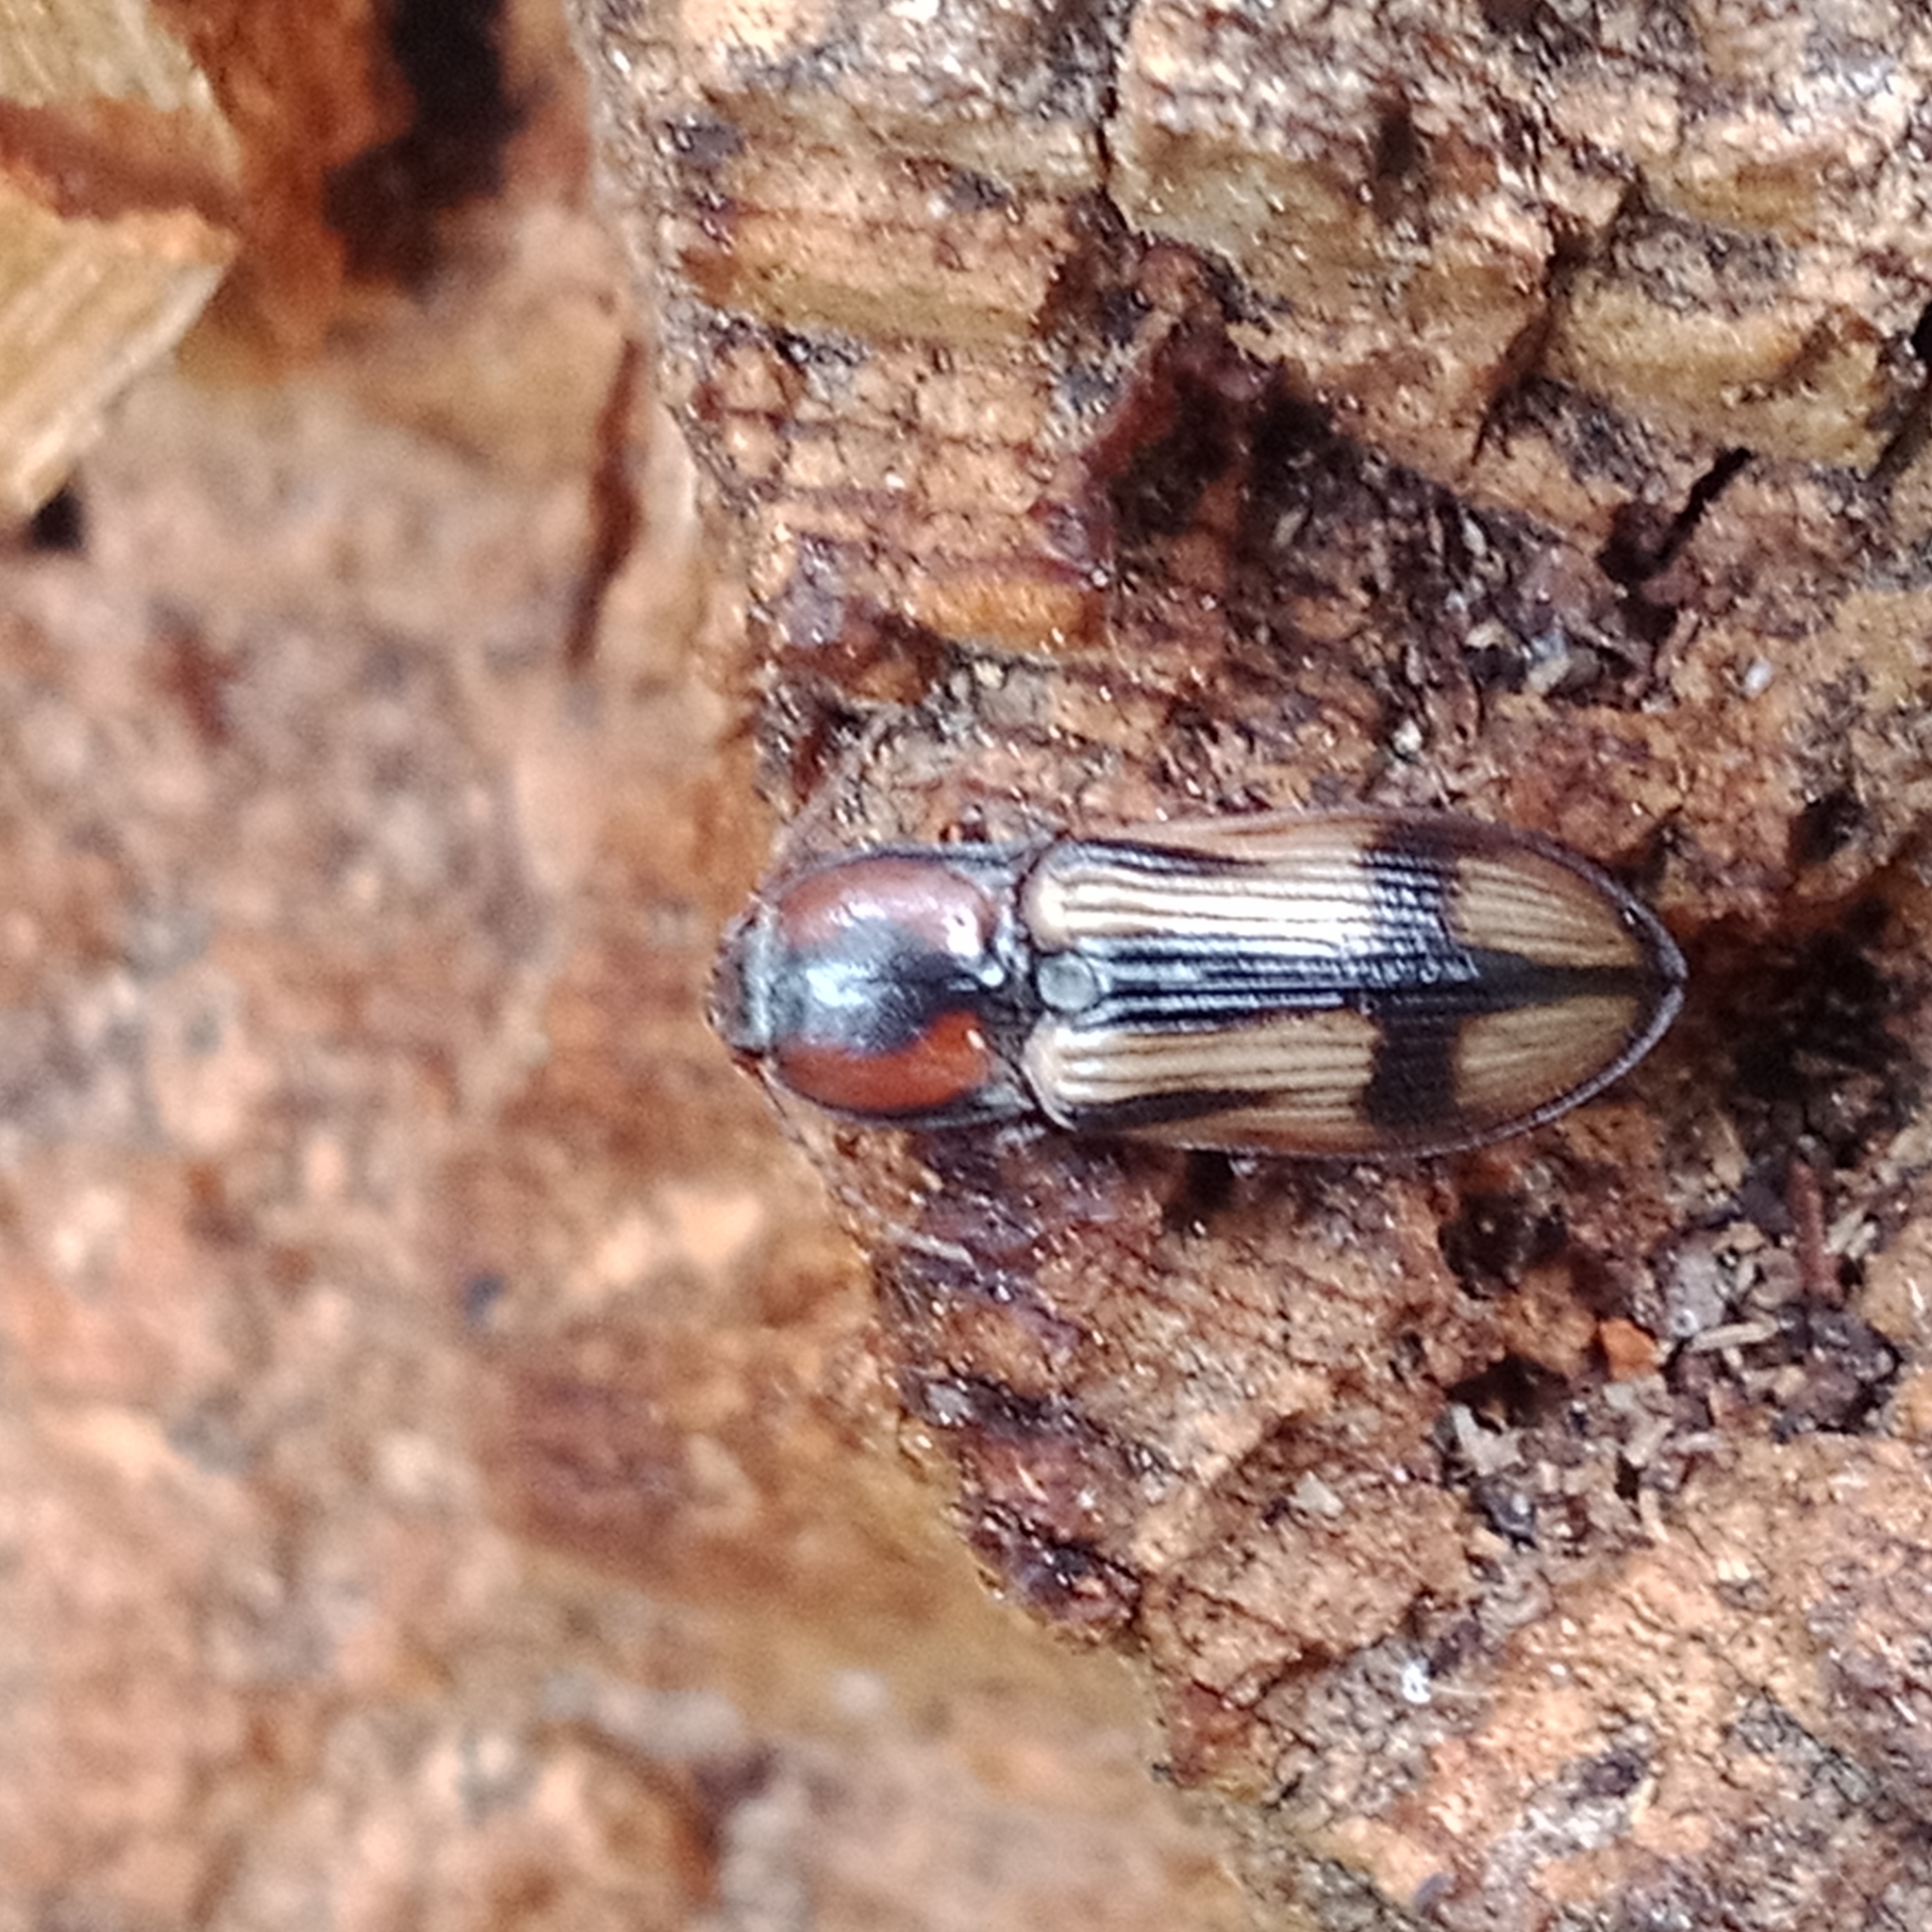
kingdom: Animalia
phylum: Arthropoda
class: Insecta
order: Coleoptera
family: Elateridae
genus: Selatosomus
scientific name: Selatosomus cruciatus
